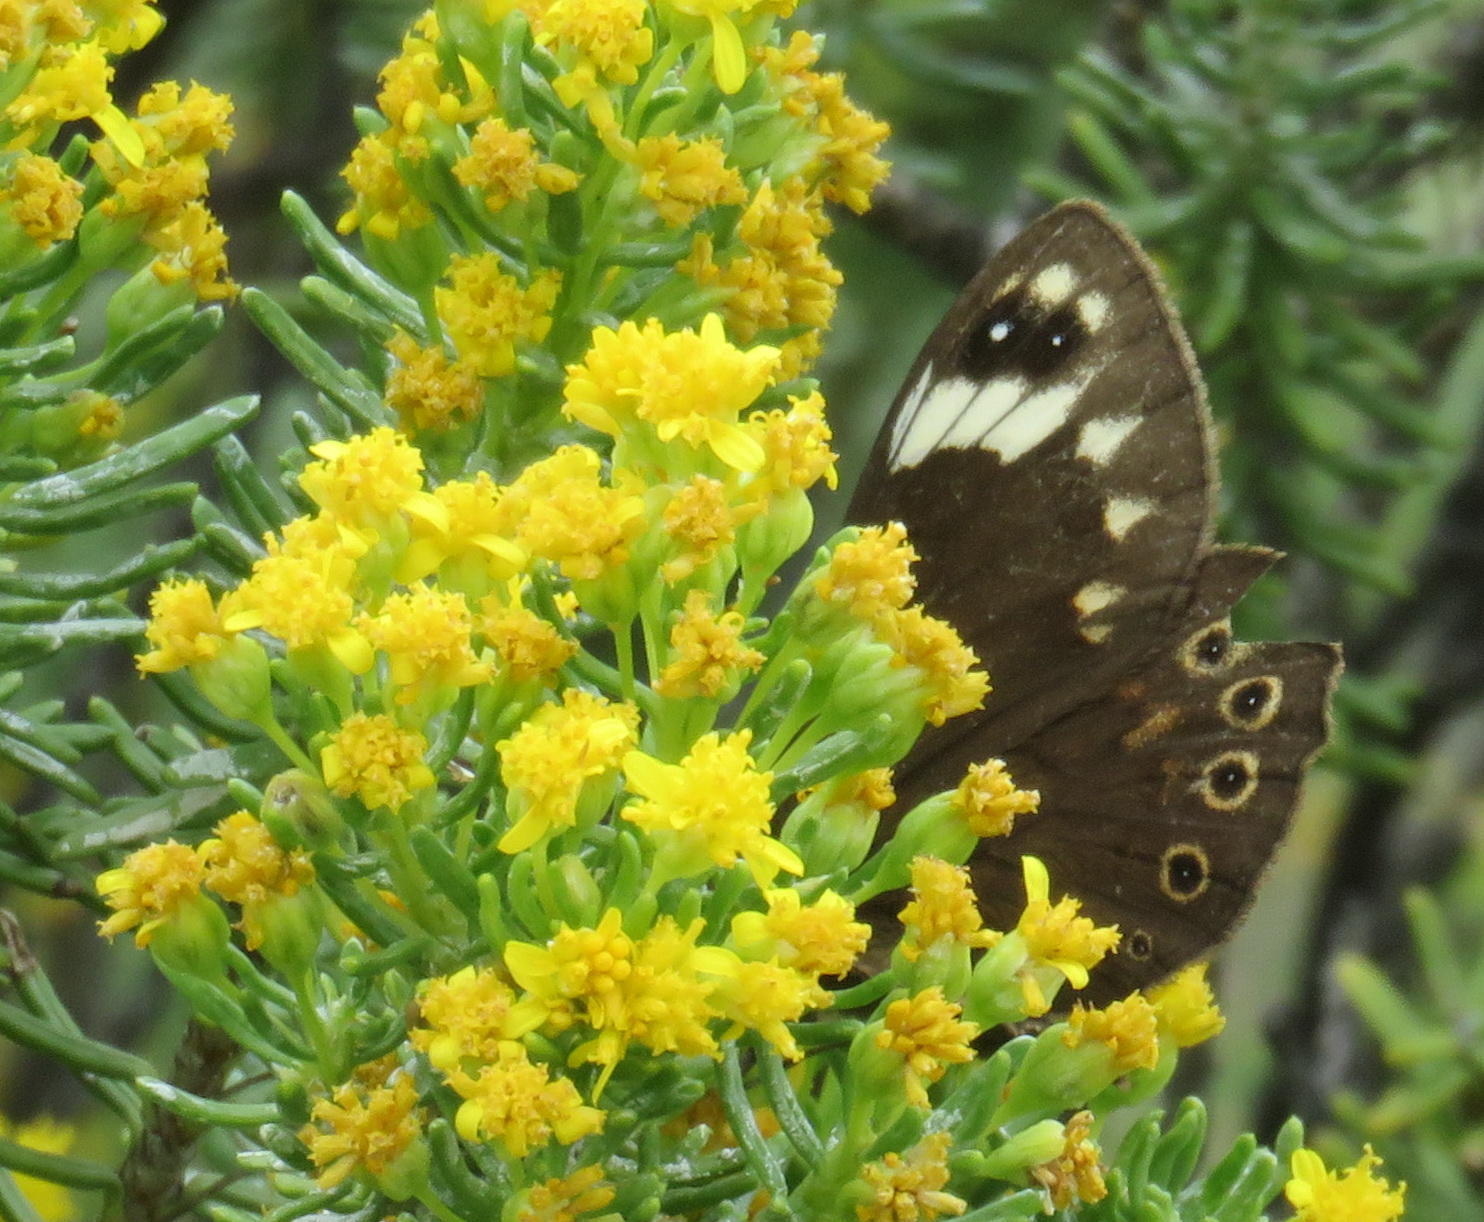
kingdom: Animalia
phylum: Arthropoda
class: Insecta
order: Lepidoptera
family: Nymphalidae
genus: Torynesis
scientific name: Torynesis magna
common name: Large widow
